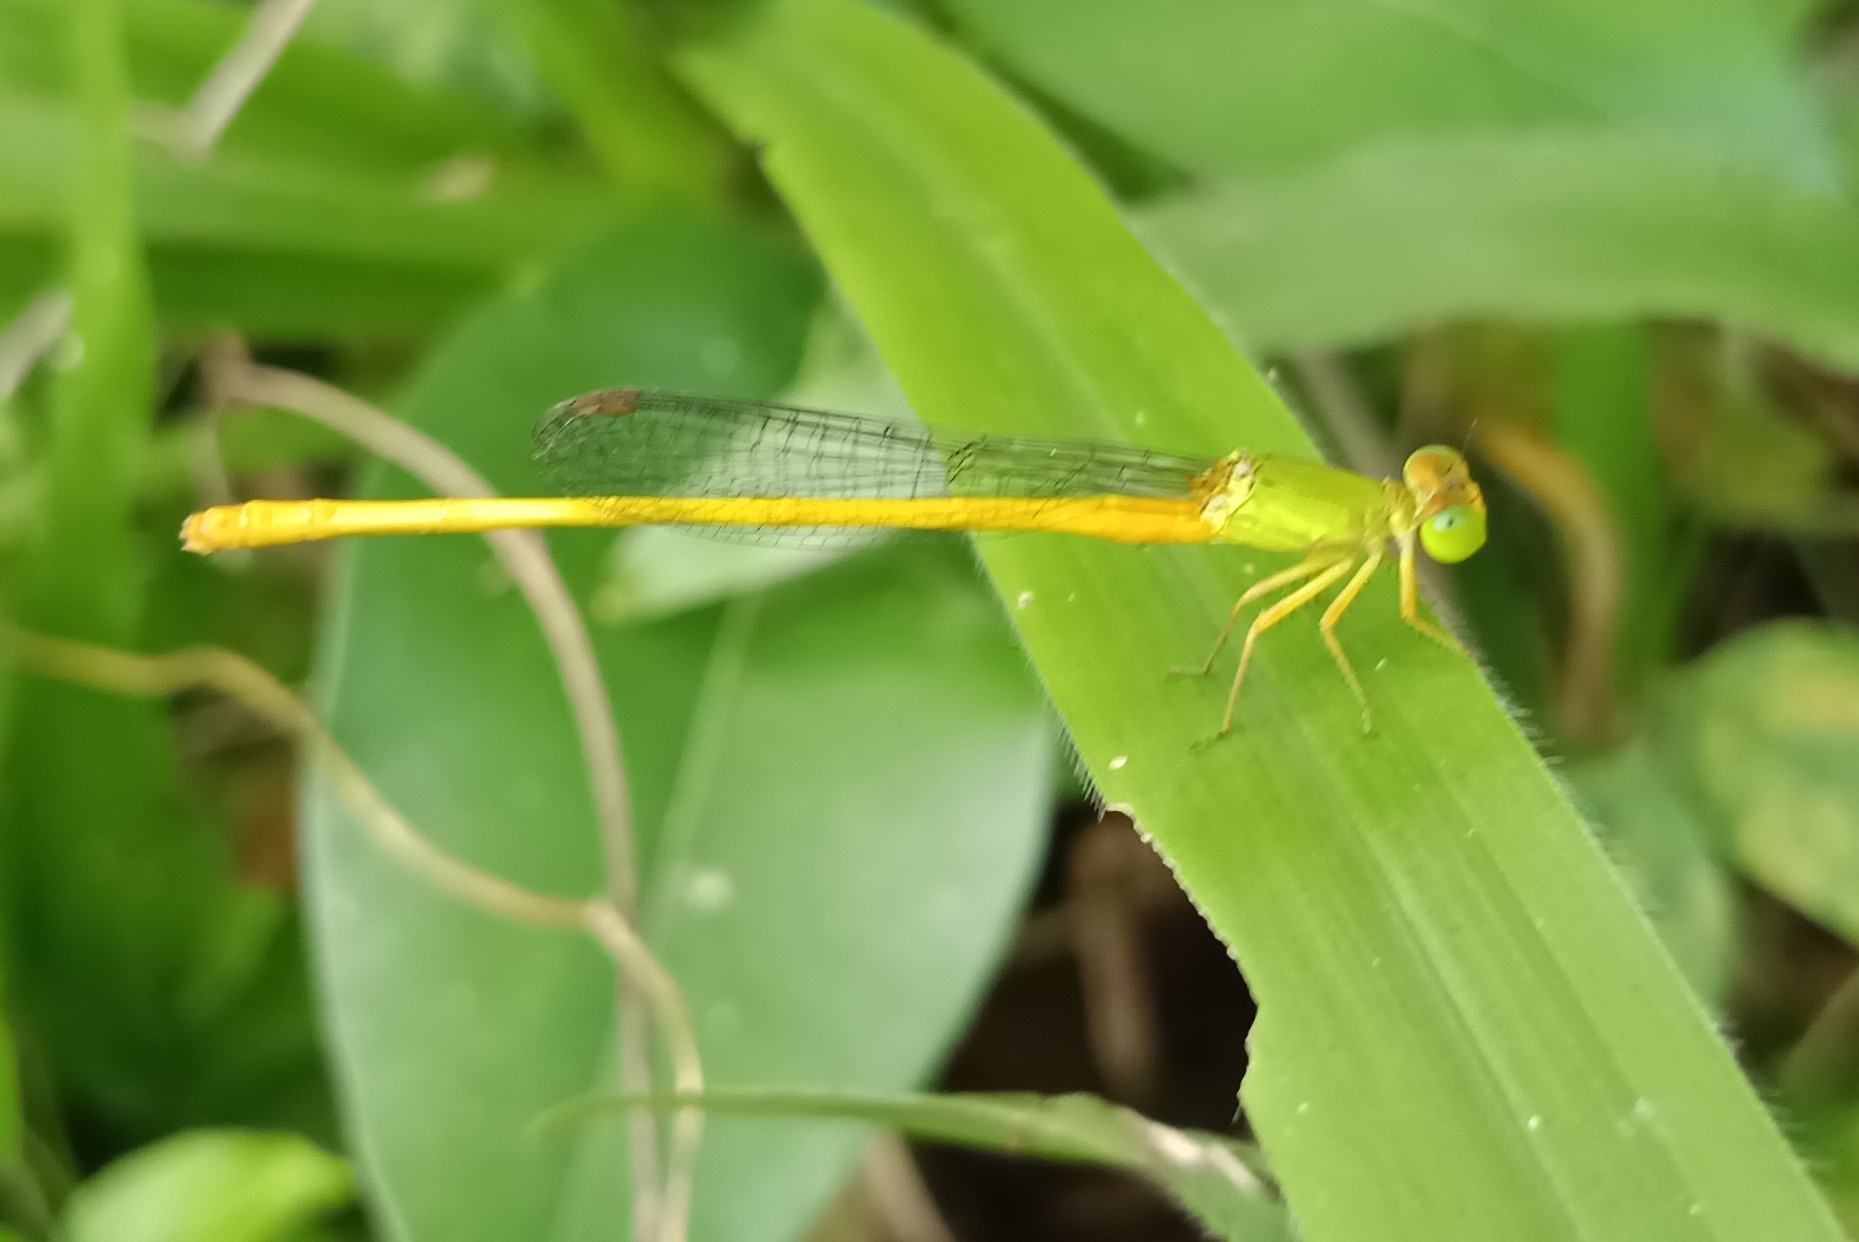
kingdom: Animalia
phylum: Arthropoda
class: Insecta
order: Odonata
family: Coenagrionidae
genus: Ceriagrion
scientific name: Ceriagrion coromandelianum
